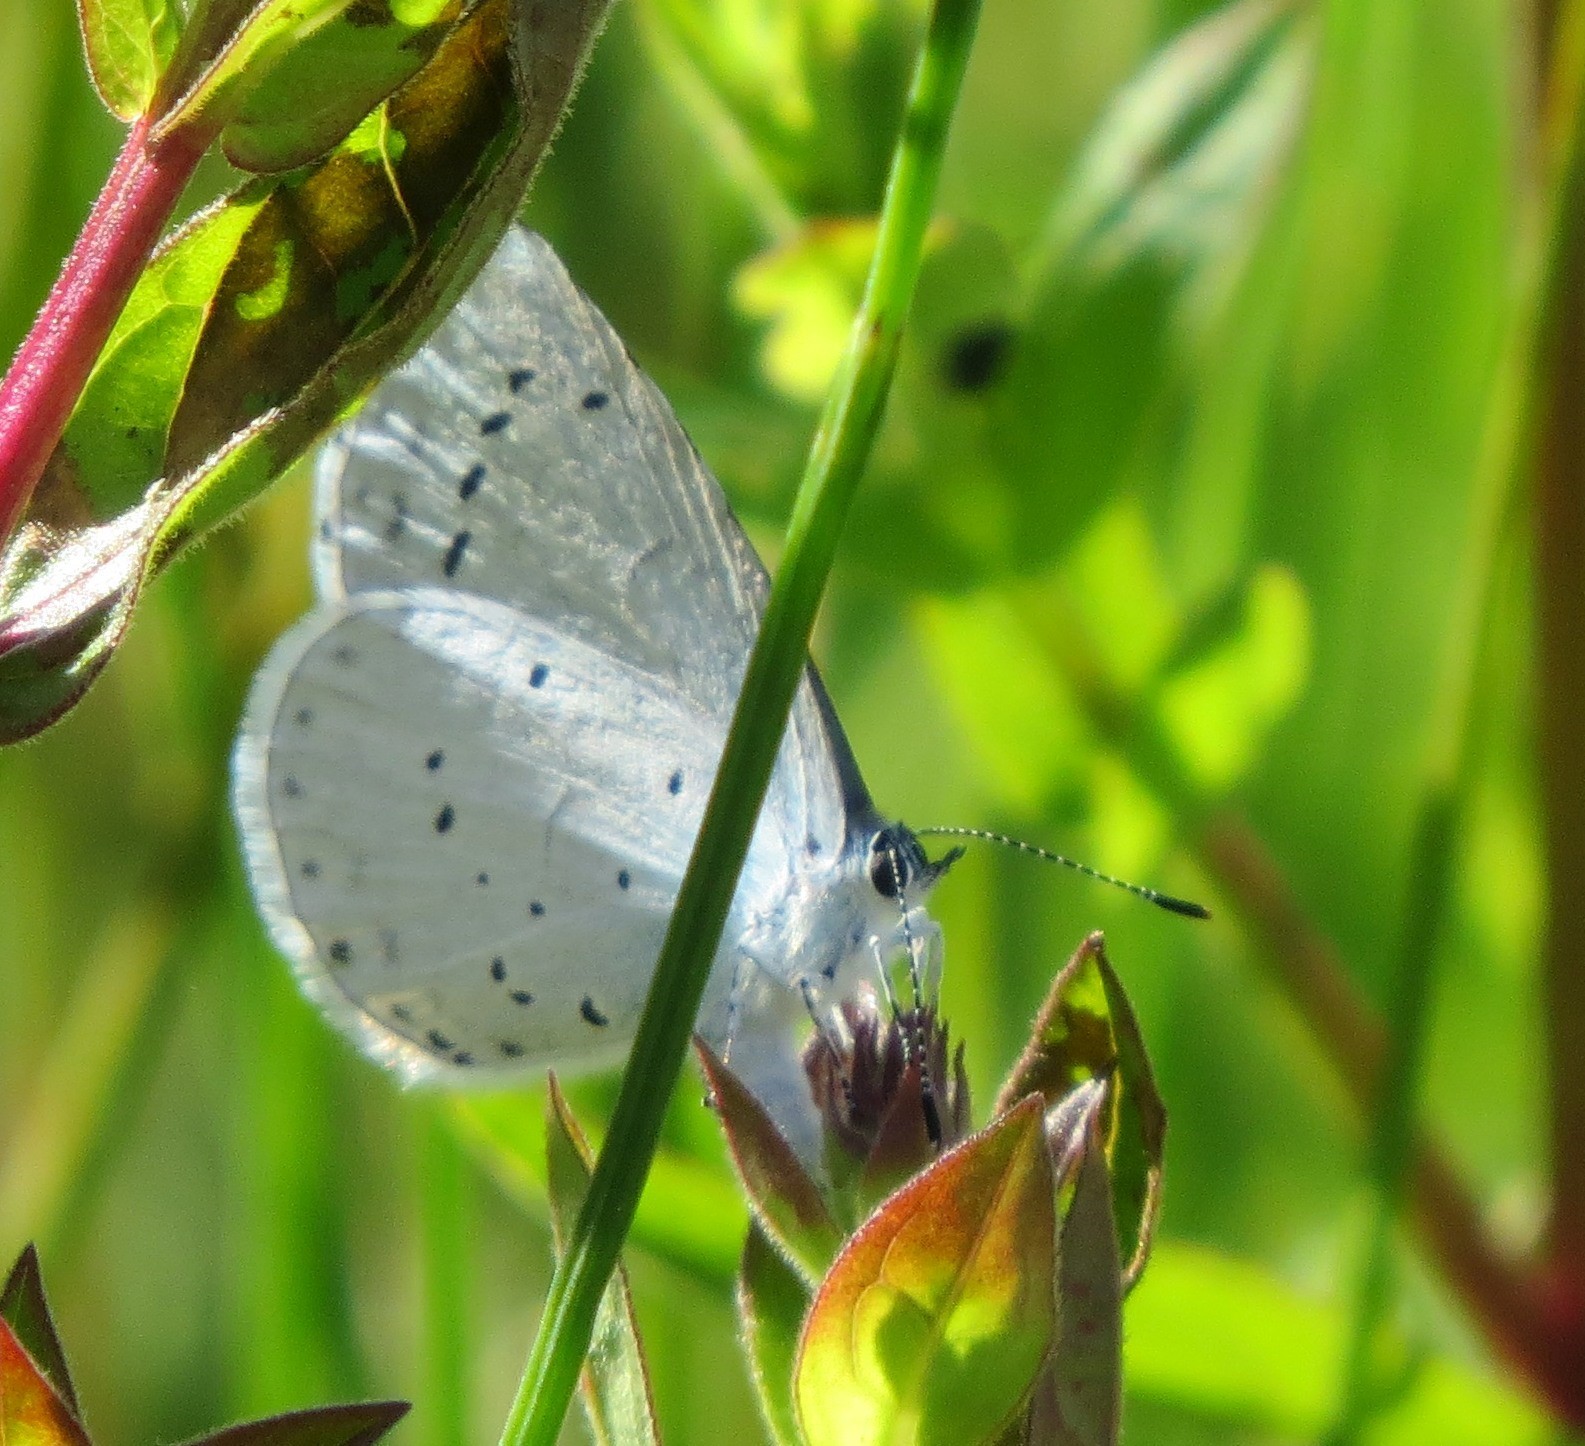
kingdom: Animalia
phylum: Arthropoda
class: Insecta
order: Lepidoptera
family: Lycaenidae
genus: Celastrina
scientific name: Celastrina argiolus
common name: Holly blue
